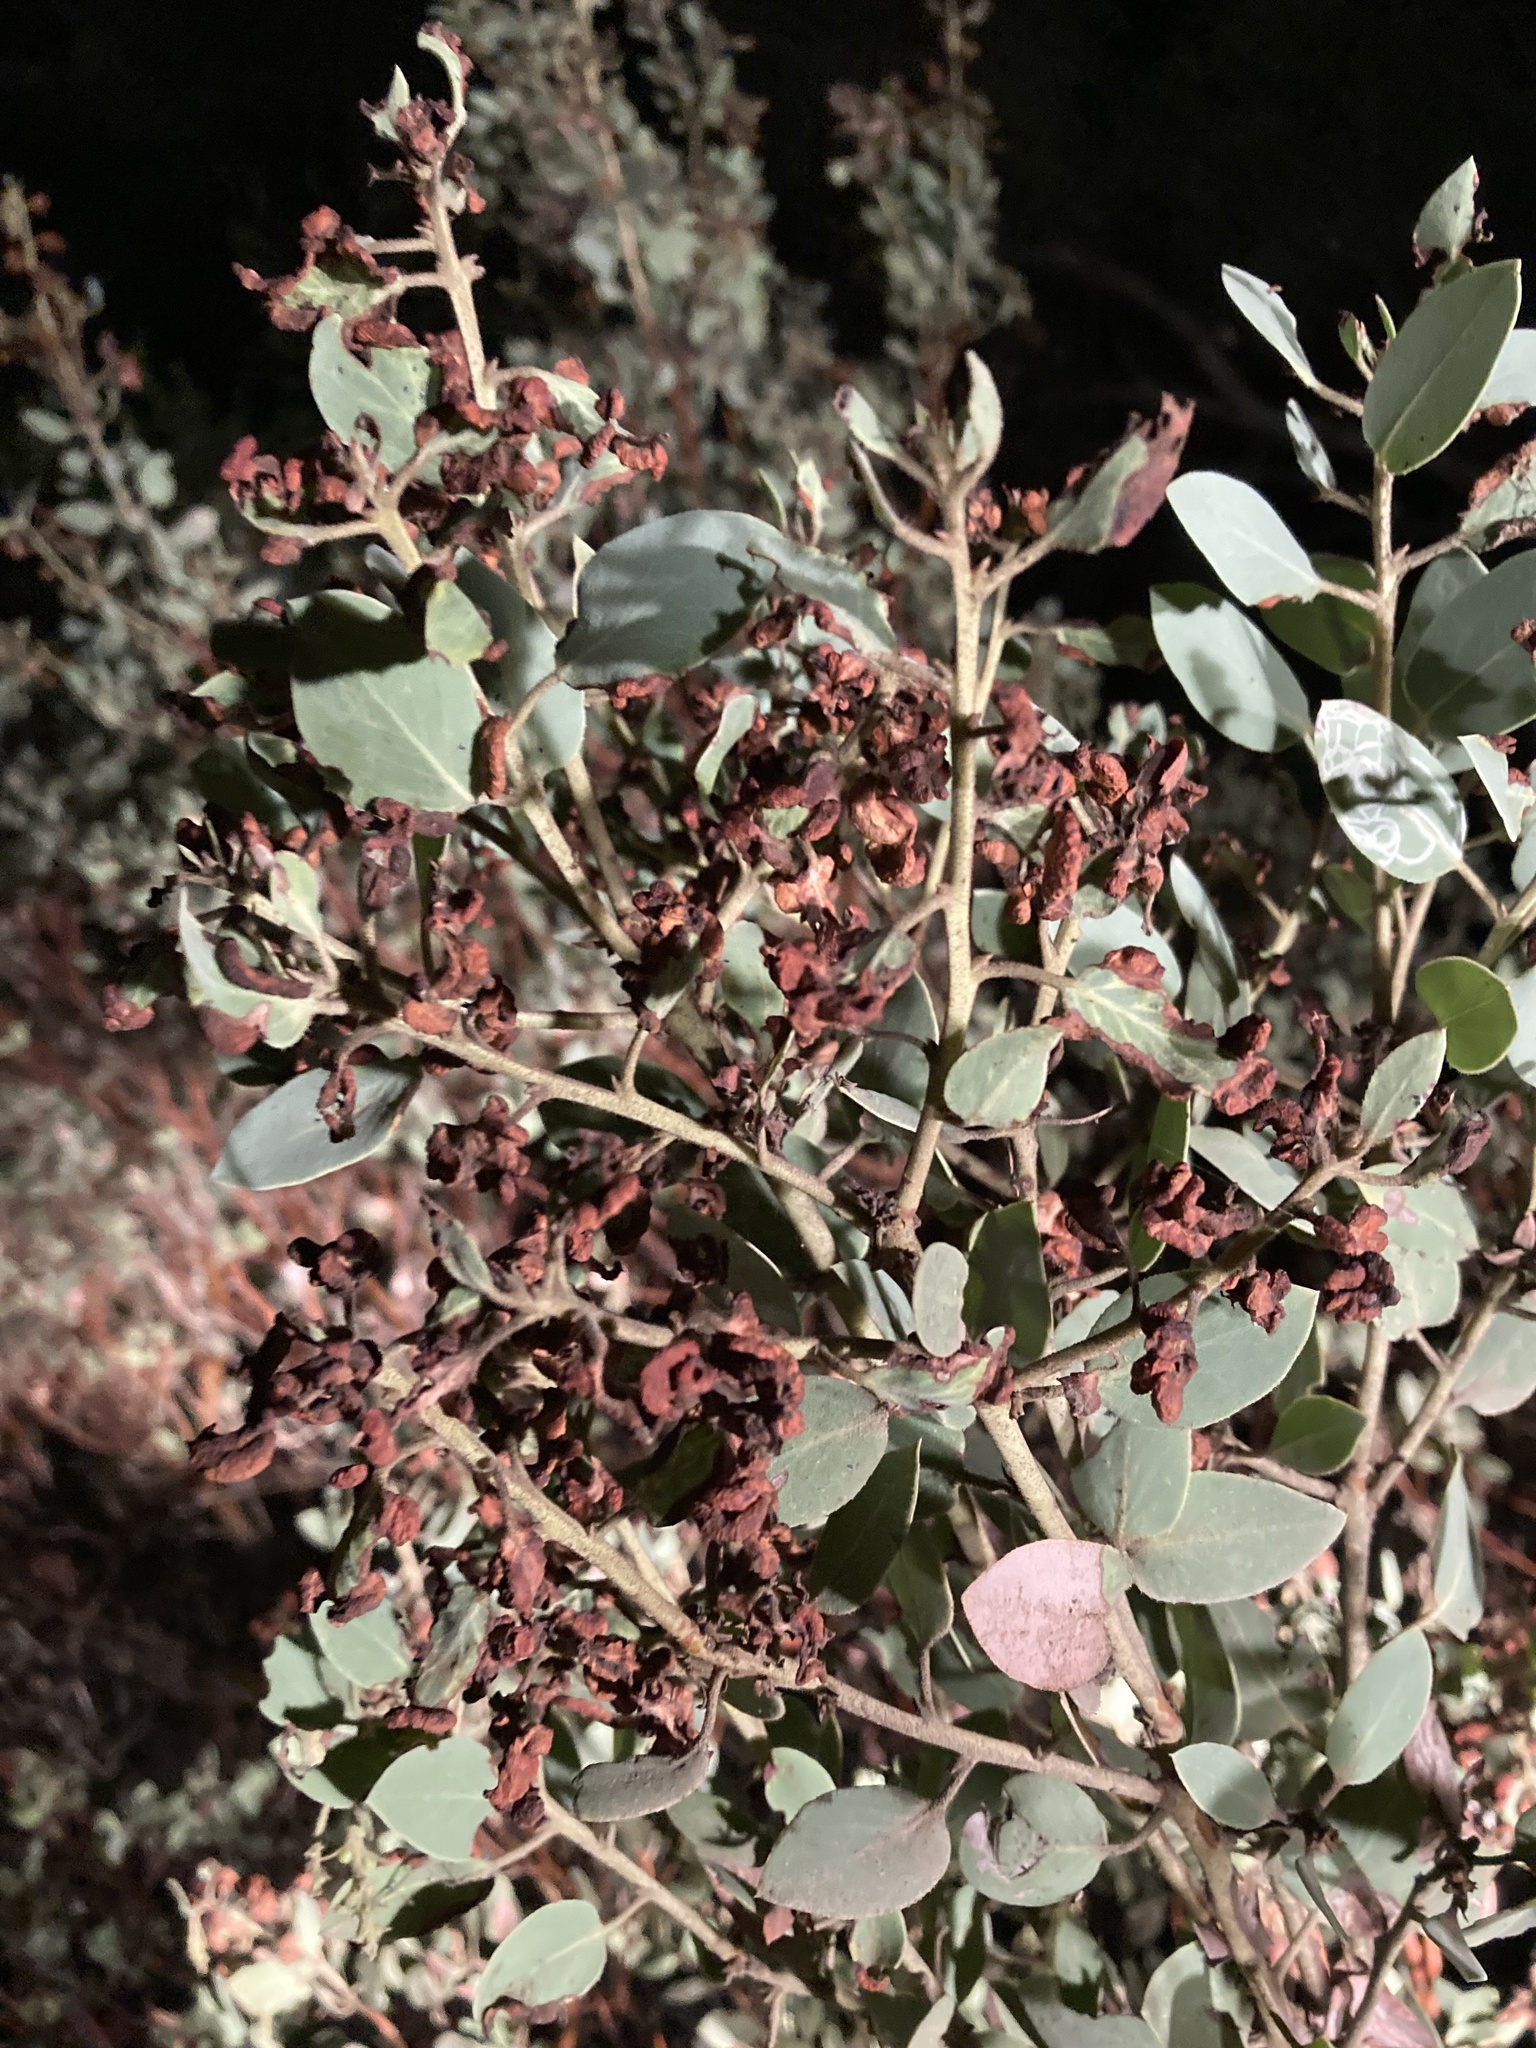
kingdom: Plantae
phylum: Tracheophyta
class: Magnoliopsida
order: Ericales
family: Ericaceae
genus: Arctostaphylos
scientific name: Arctostaphylos glauca
